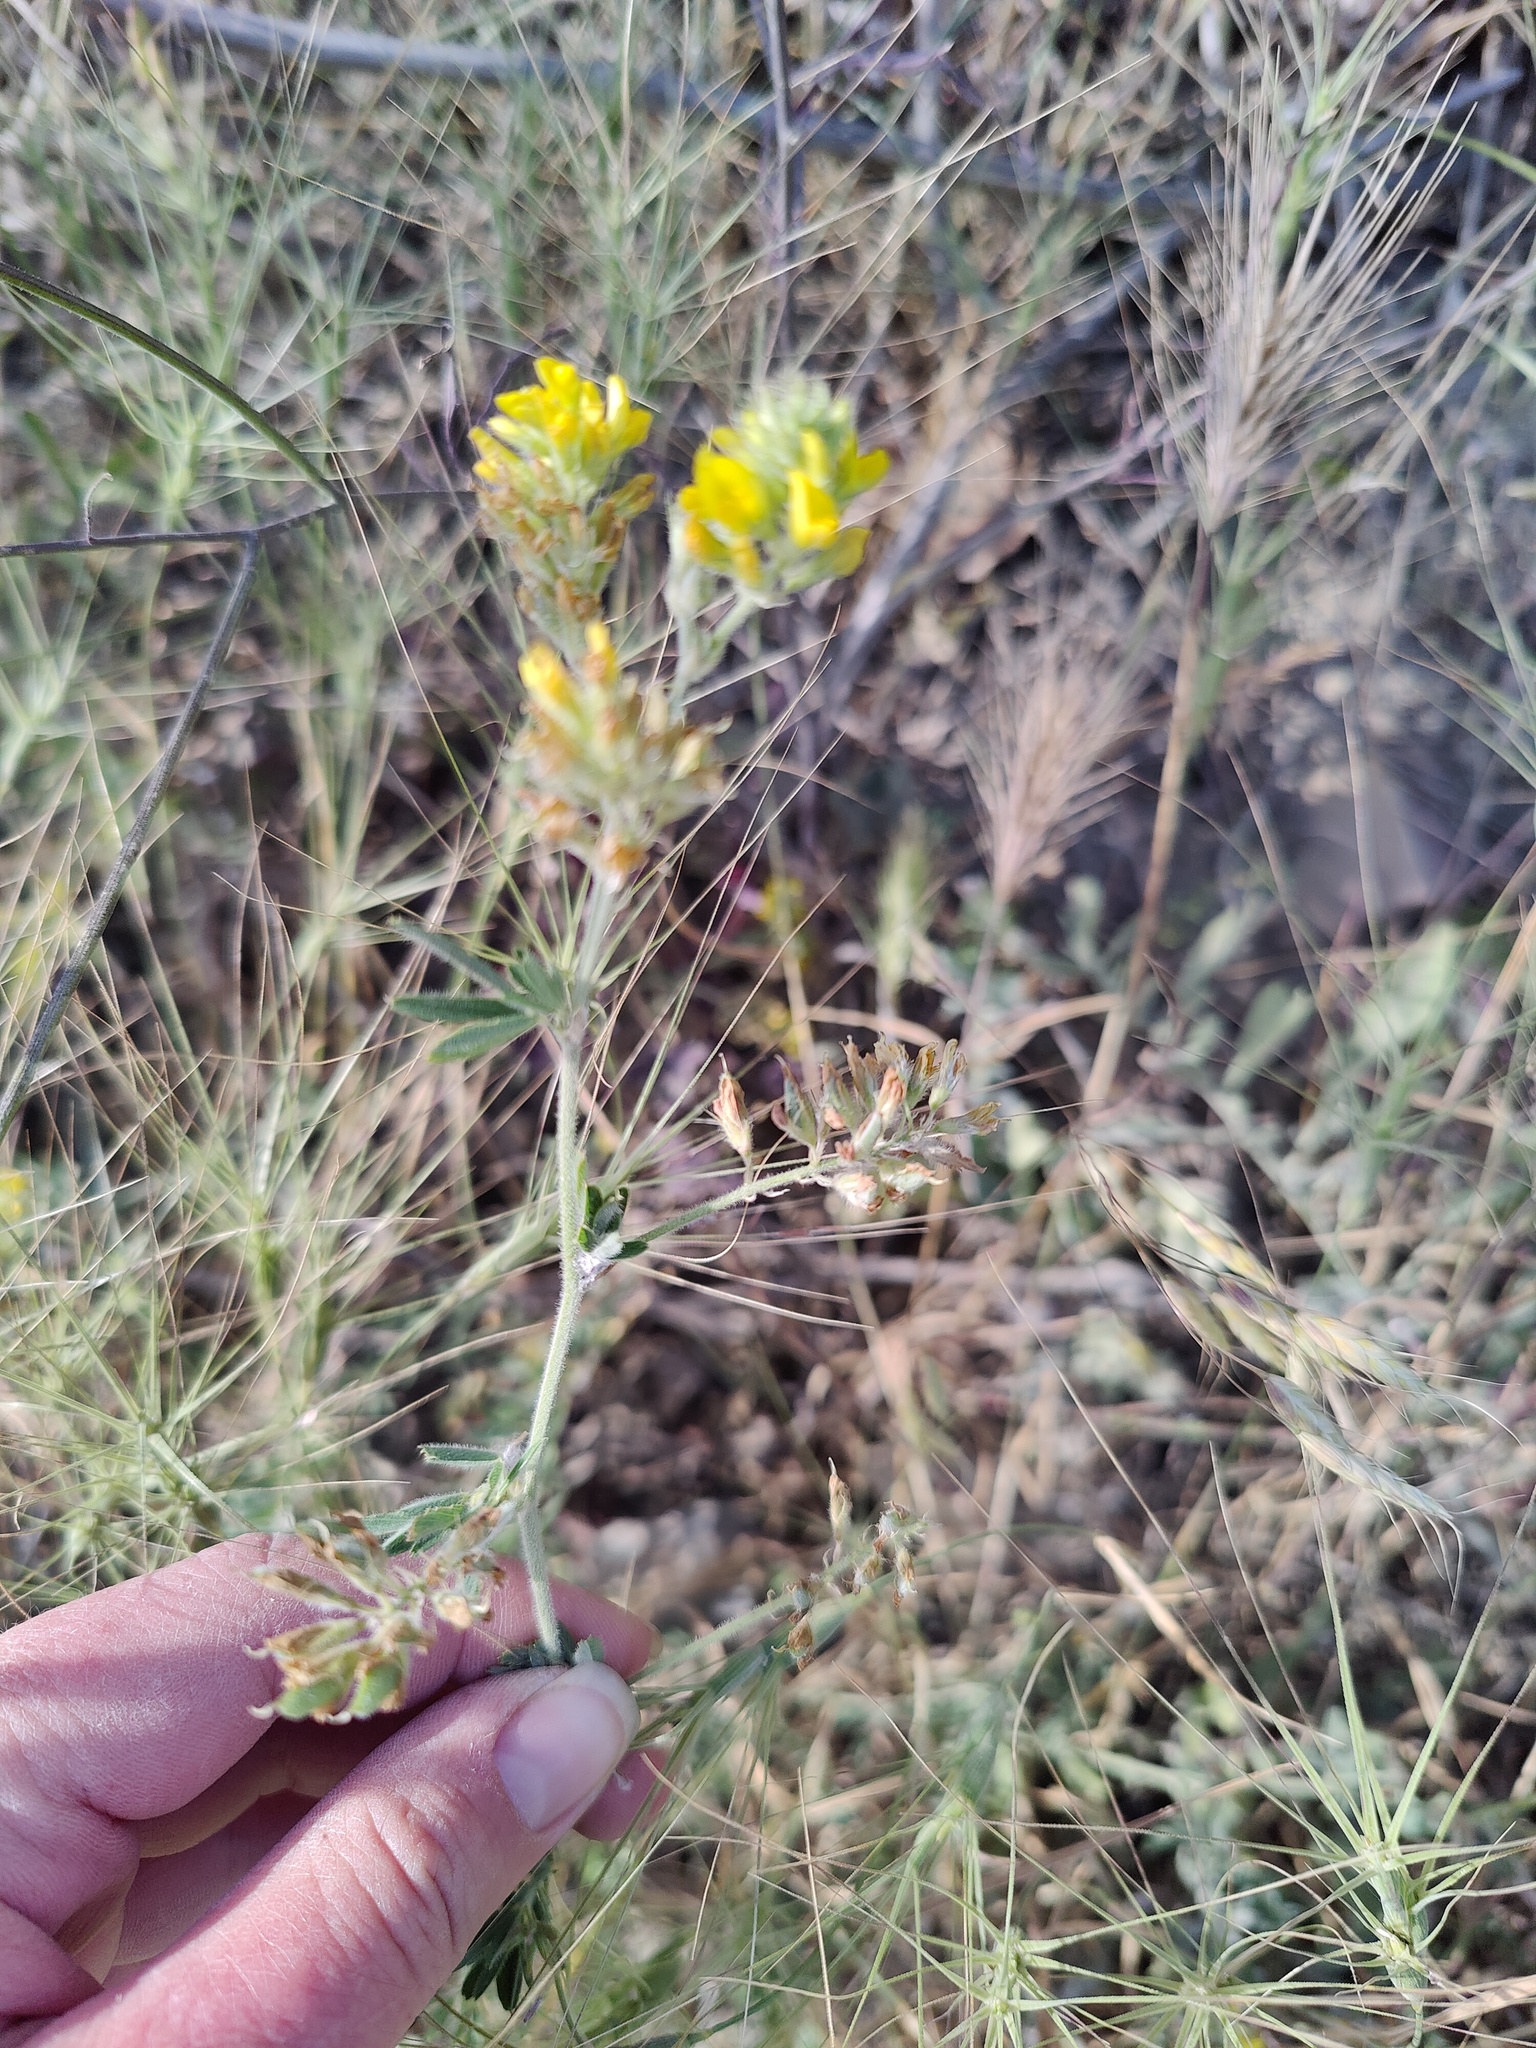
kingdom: Plantae
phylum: Tracheophyta
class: Magnoliopsida
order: Fabales
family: Fabaceae
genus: Medicago
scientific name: Medicago falcata
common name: Sickle medick
